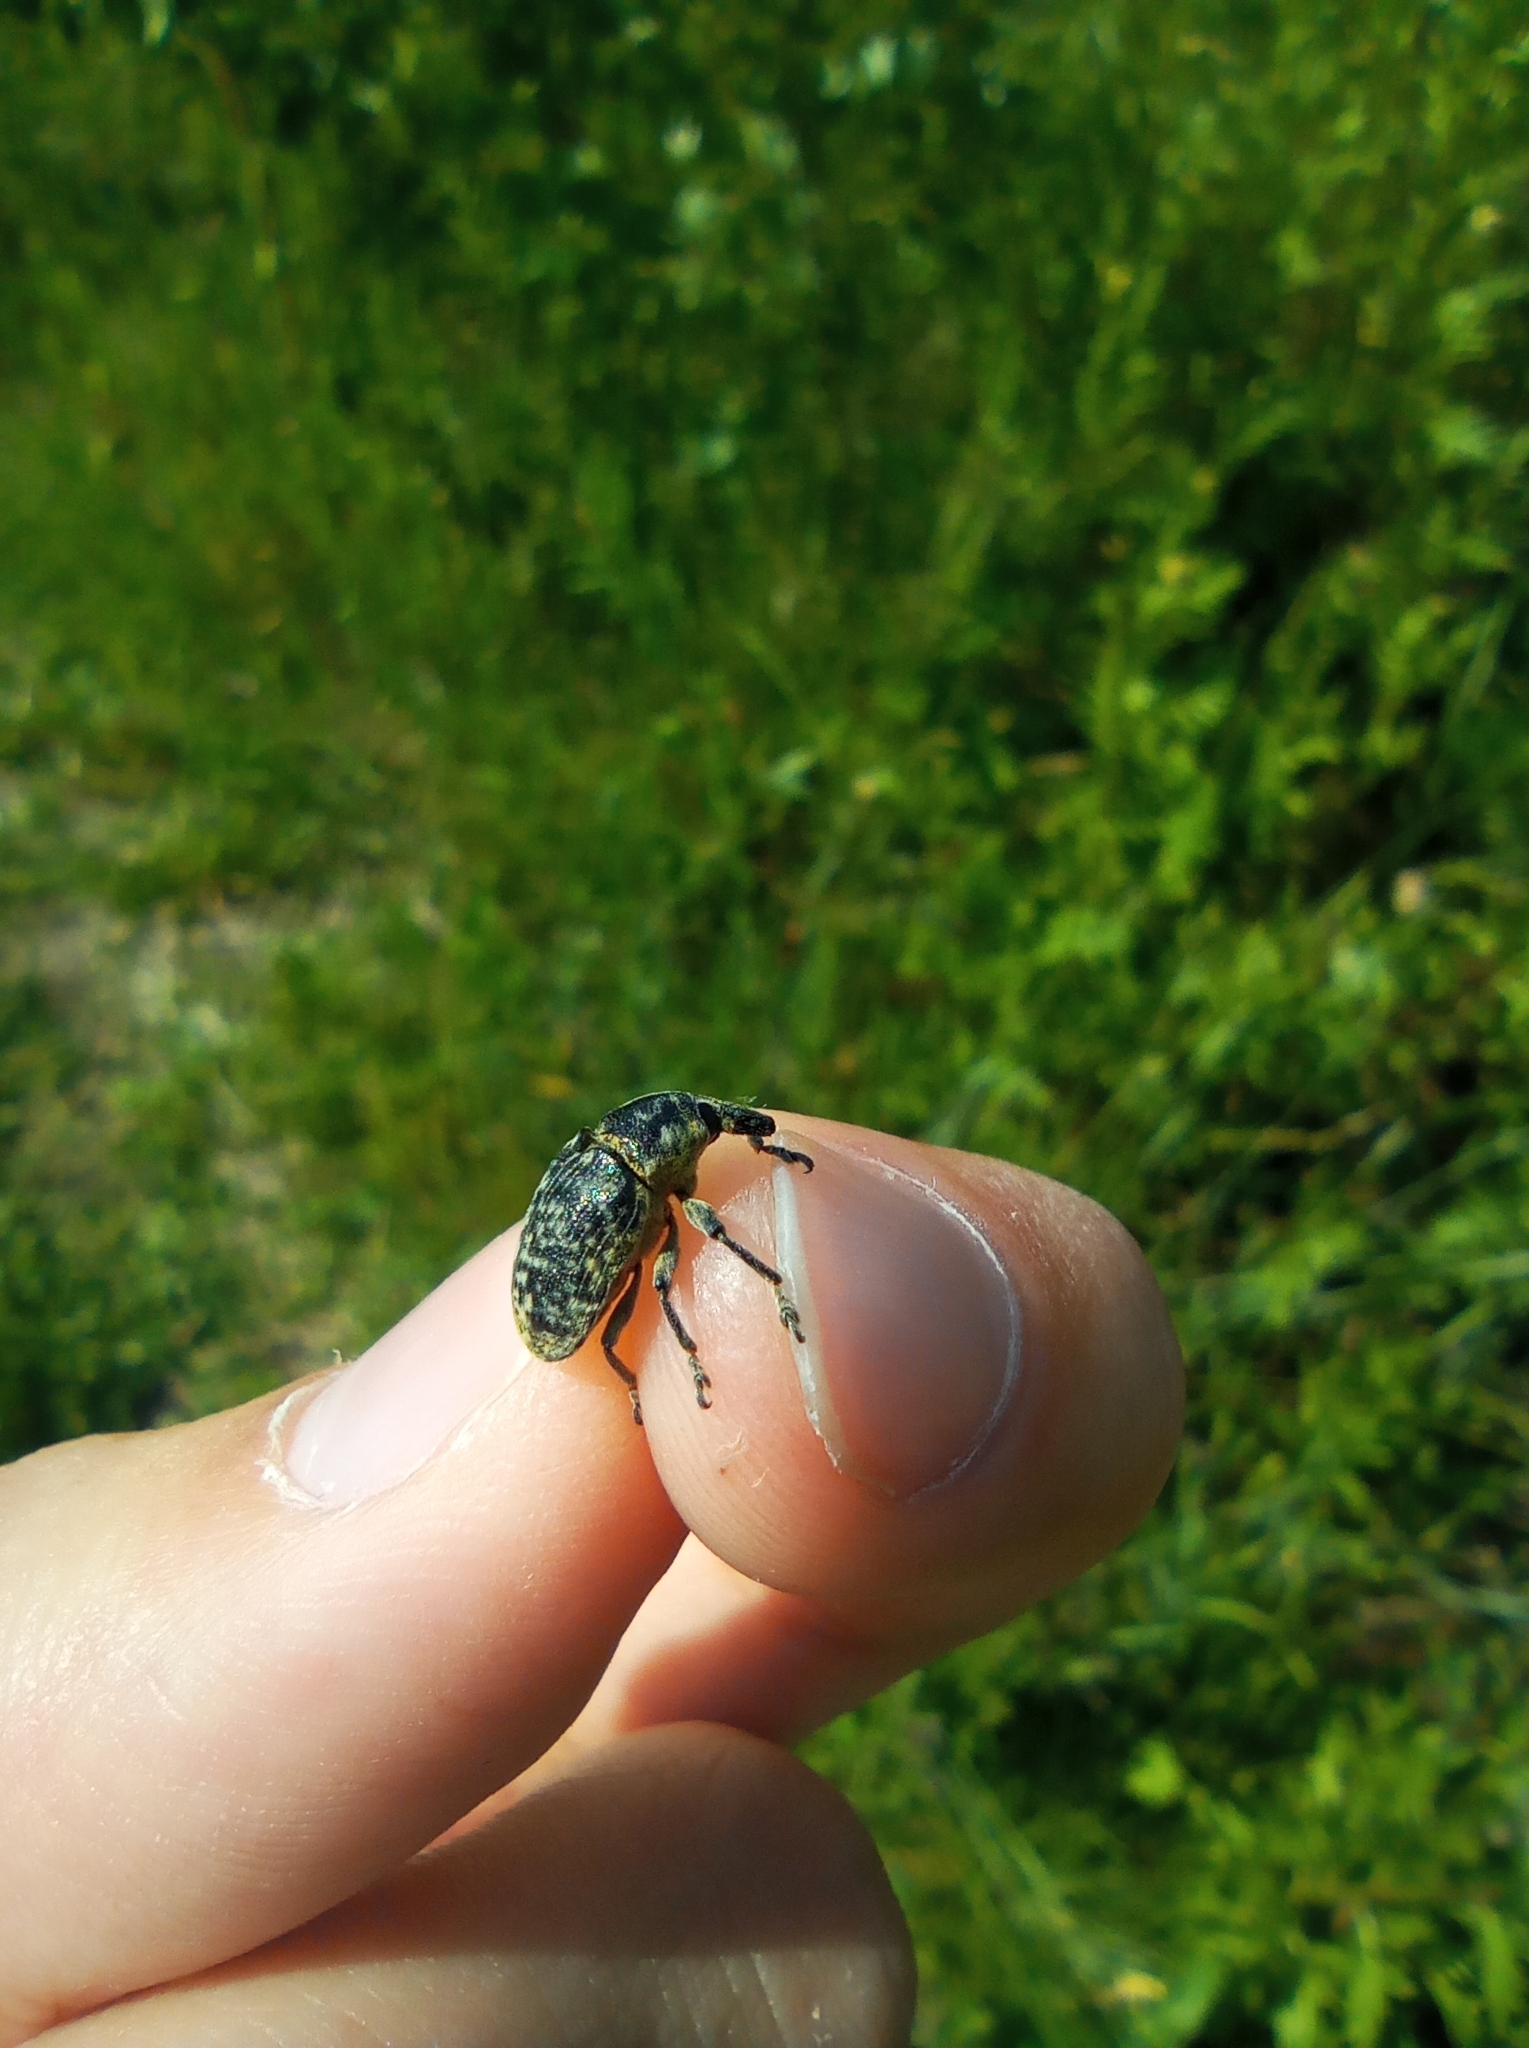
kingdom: Animalia
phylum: Arthropoda
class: Insecta
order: Coleoptera
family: Curculionidae
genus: Larinus
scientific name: Larinus turbinatus
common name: Weevil
